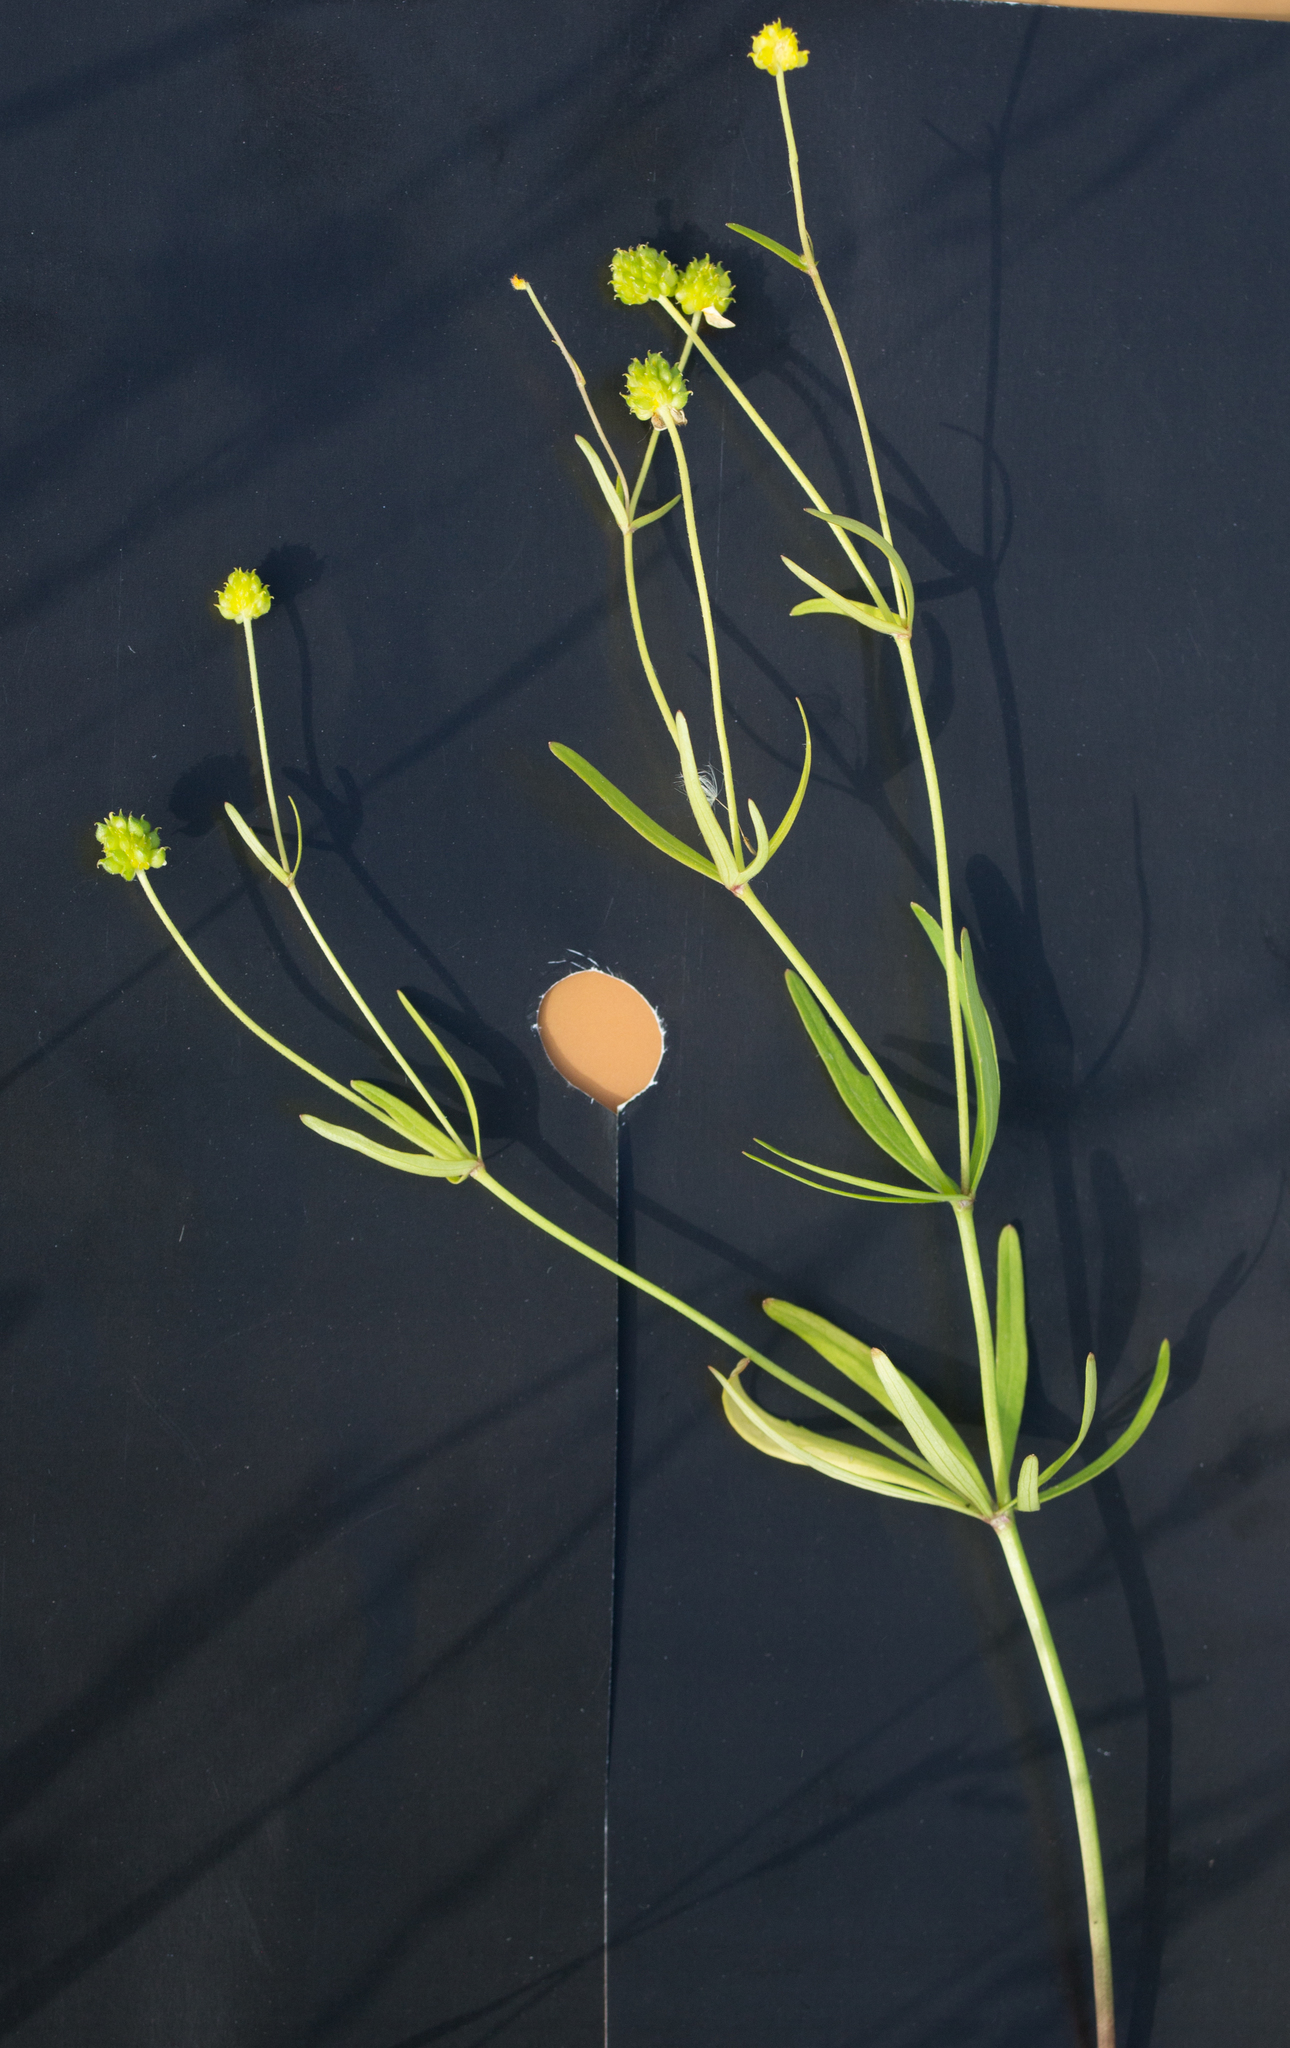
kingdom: Plantae
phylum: Tracheophyta
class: Magnoliopsida
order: Ranunculales
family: Ranunculaceae
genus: Ranunculus
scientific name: Ranunculus auricomus
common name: Goldilocks buttercup
